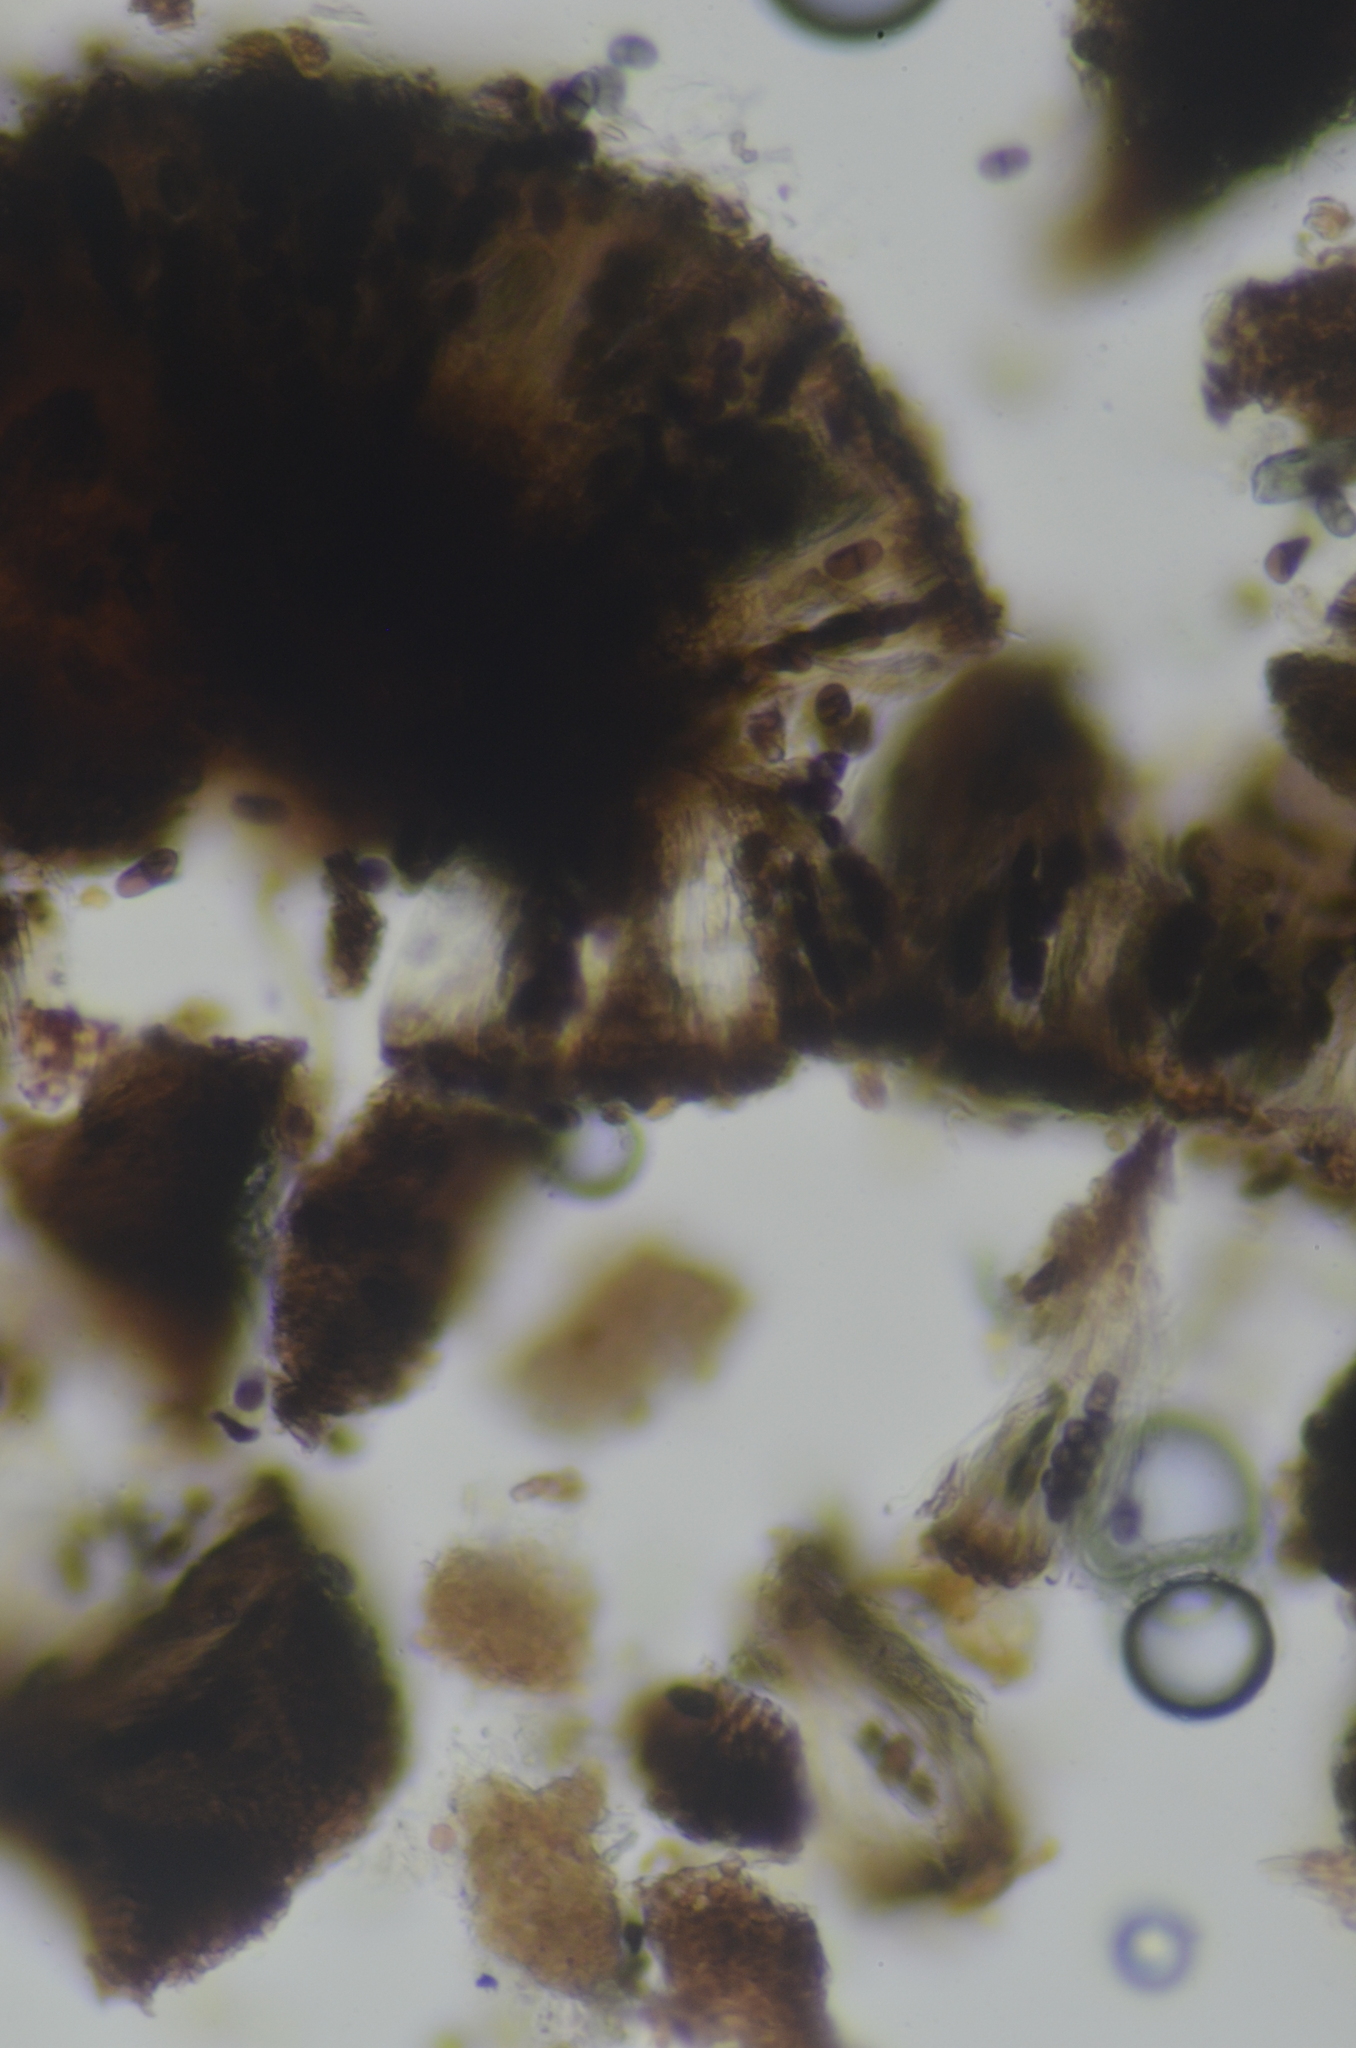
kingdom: Fungi
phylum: Ascomycota
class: Lecanoromycetes
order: Caliciales
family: Caliciaceae
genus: Buellia
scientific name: Buellia badia
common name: Parasitic button lichen
